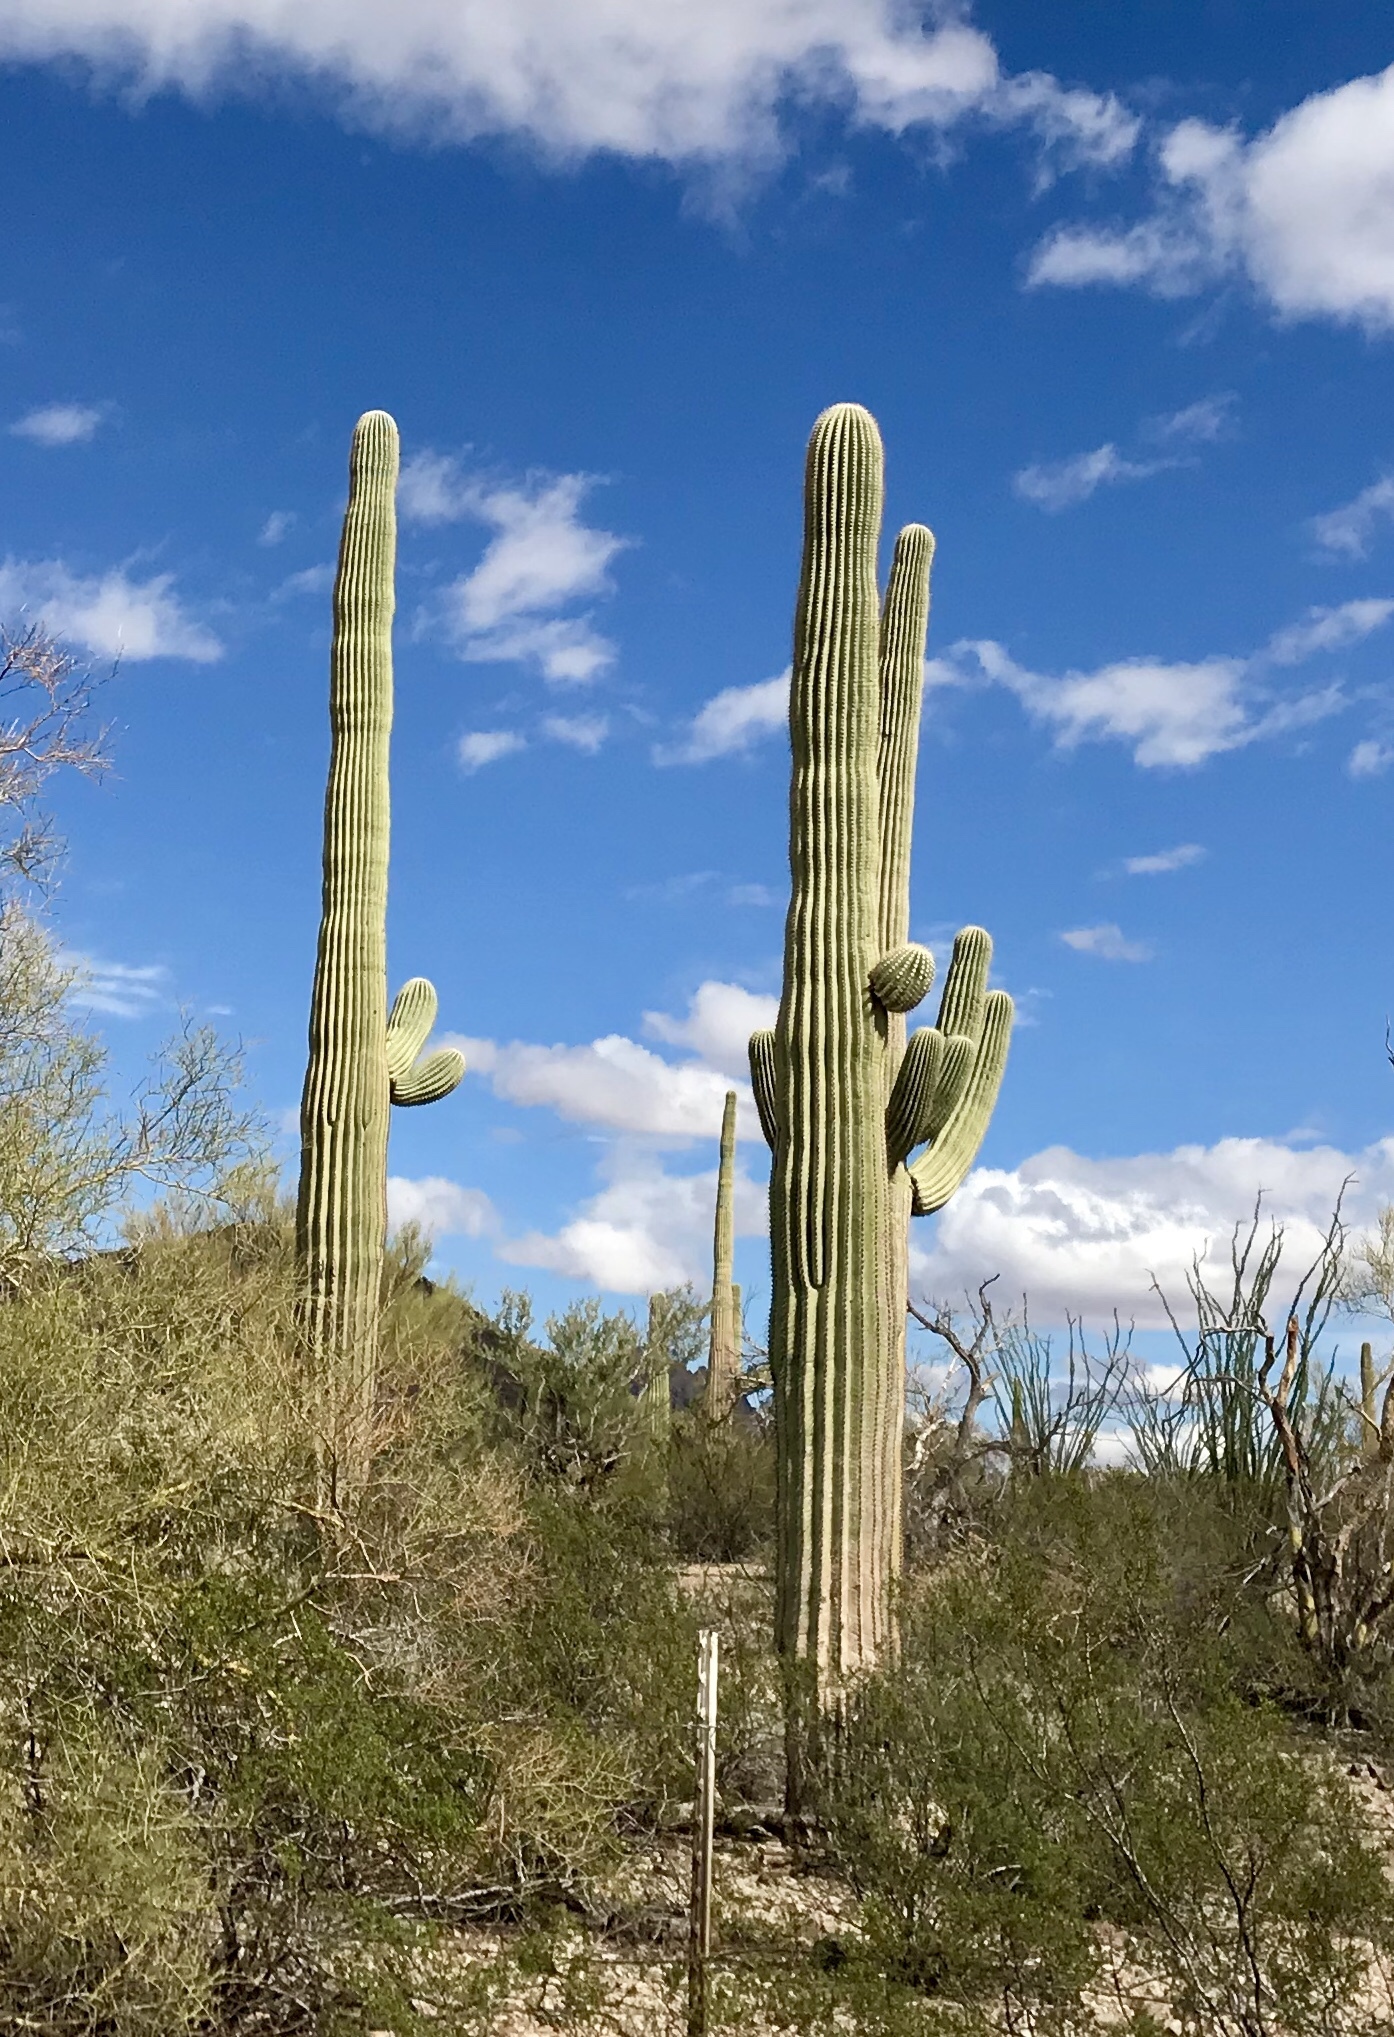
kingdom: Plantae
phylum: Tracheophyta
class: Magnoliopsida
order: Caryophyllales
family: Cactaceae
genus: Carnegiea
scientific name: Carnegiea gigantea
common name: Saguaro
